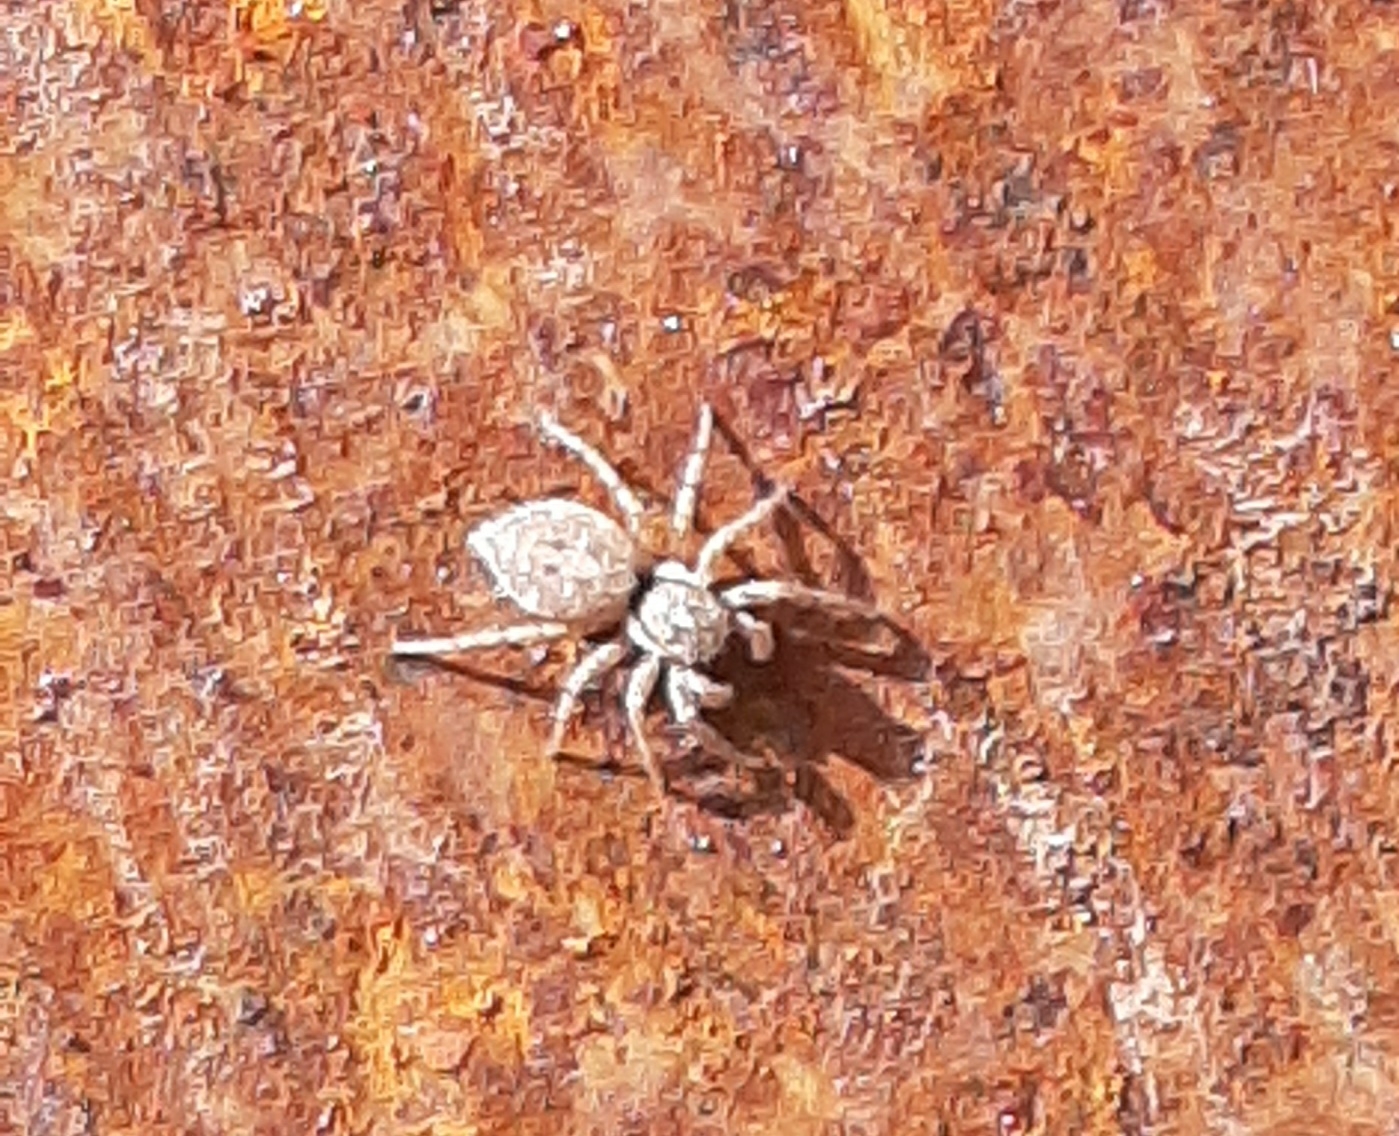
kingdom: Animalia
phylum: Arthropoda
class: Arachnida
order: Araneae
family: Salticidae
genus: Menemerus
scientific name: Menemerus semilimbatus
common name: Jumping spider
